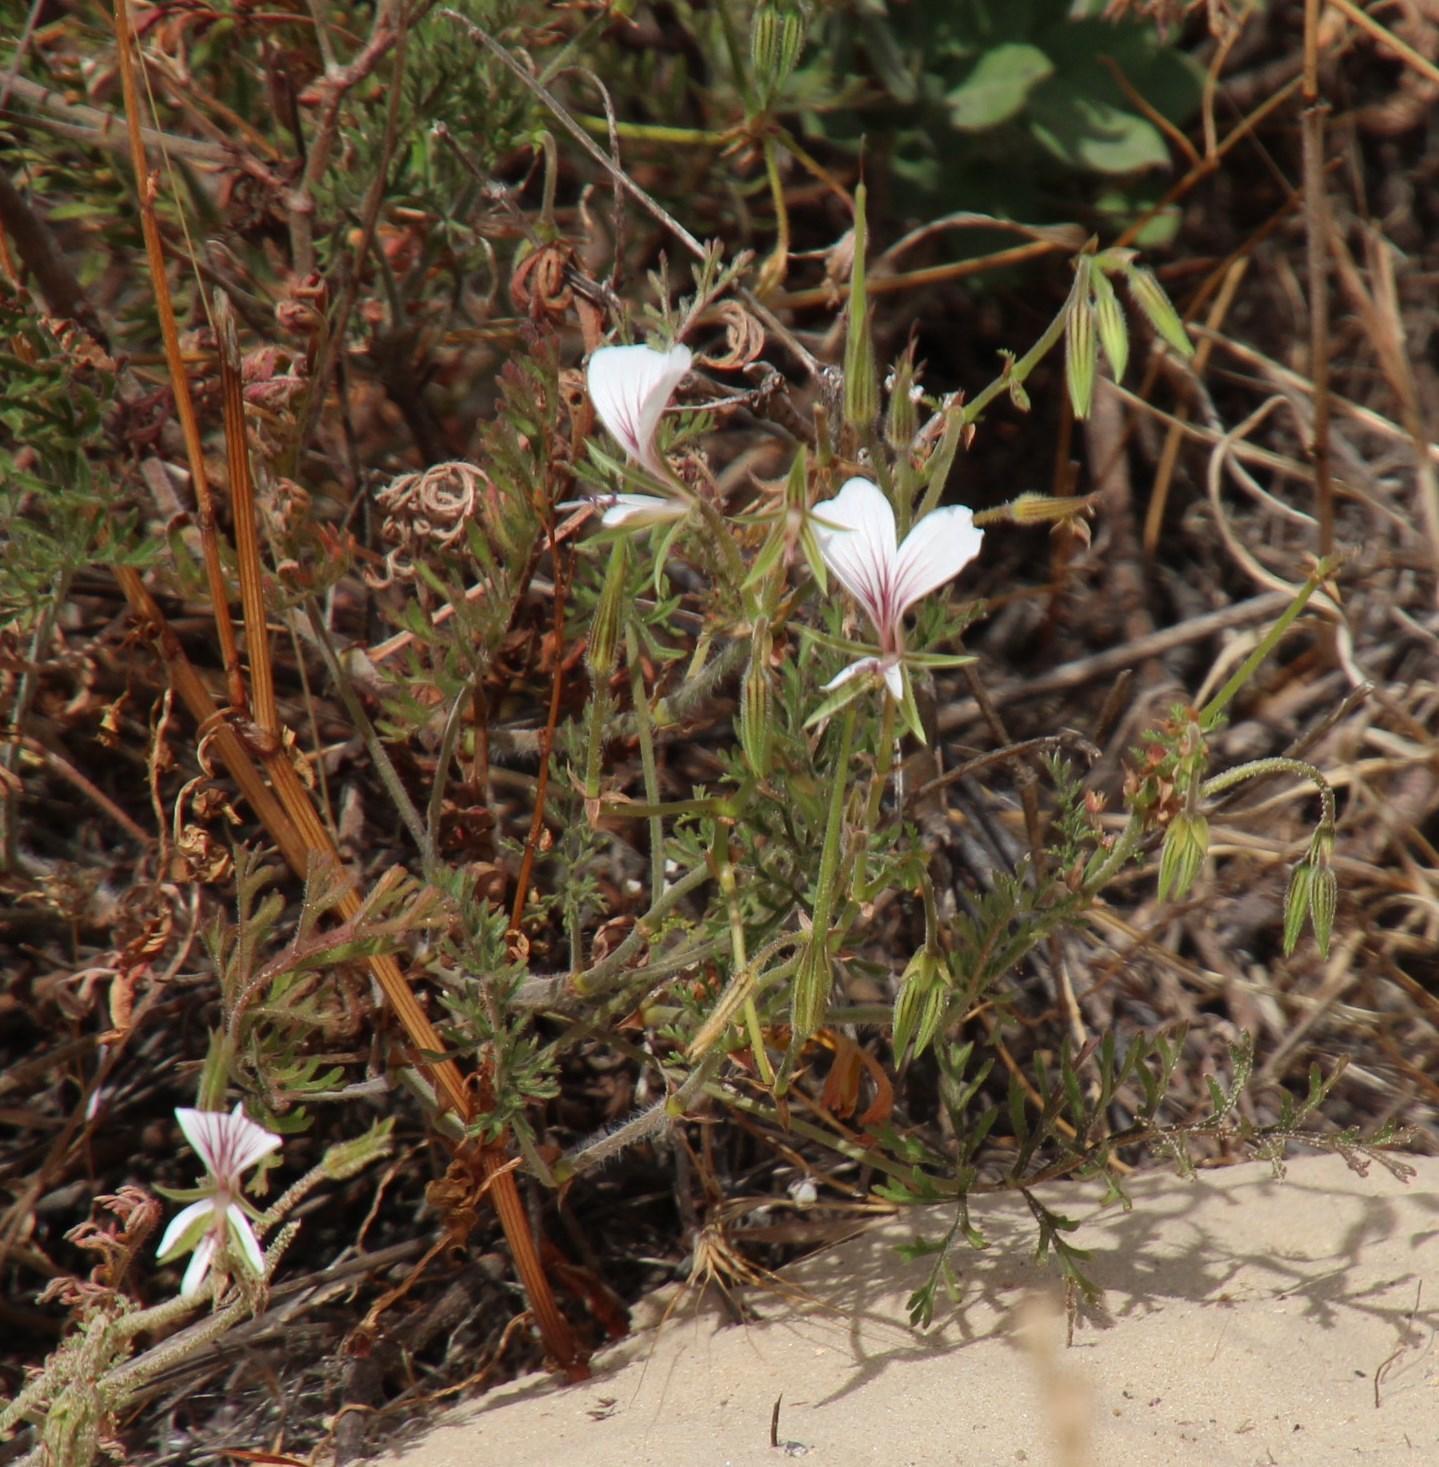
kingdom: Plantae
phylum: Tracheophyta
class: Magnoliopsida
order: Geraniales
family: Geraniaceae
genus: Pelargonium
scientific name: Pelargonium myrrhifolium
